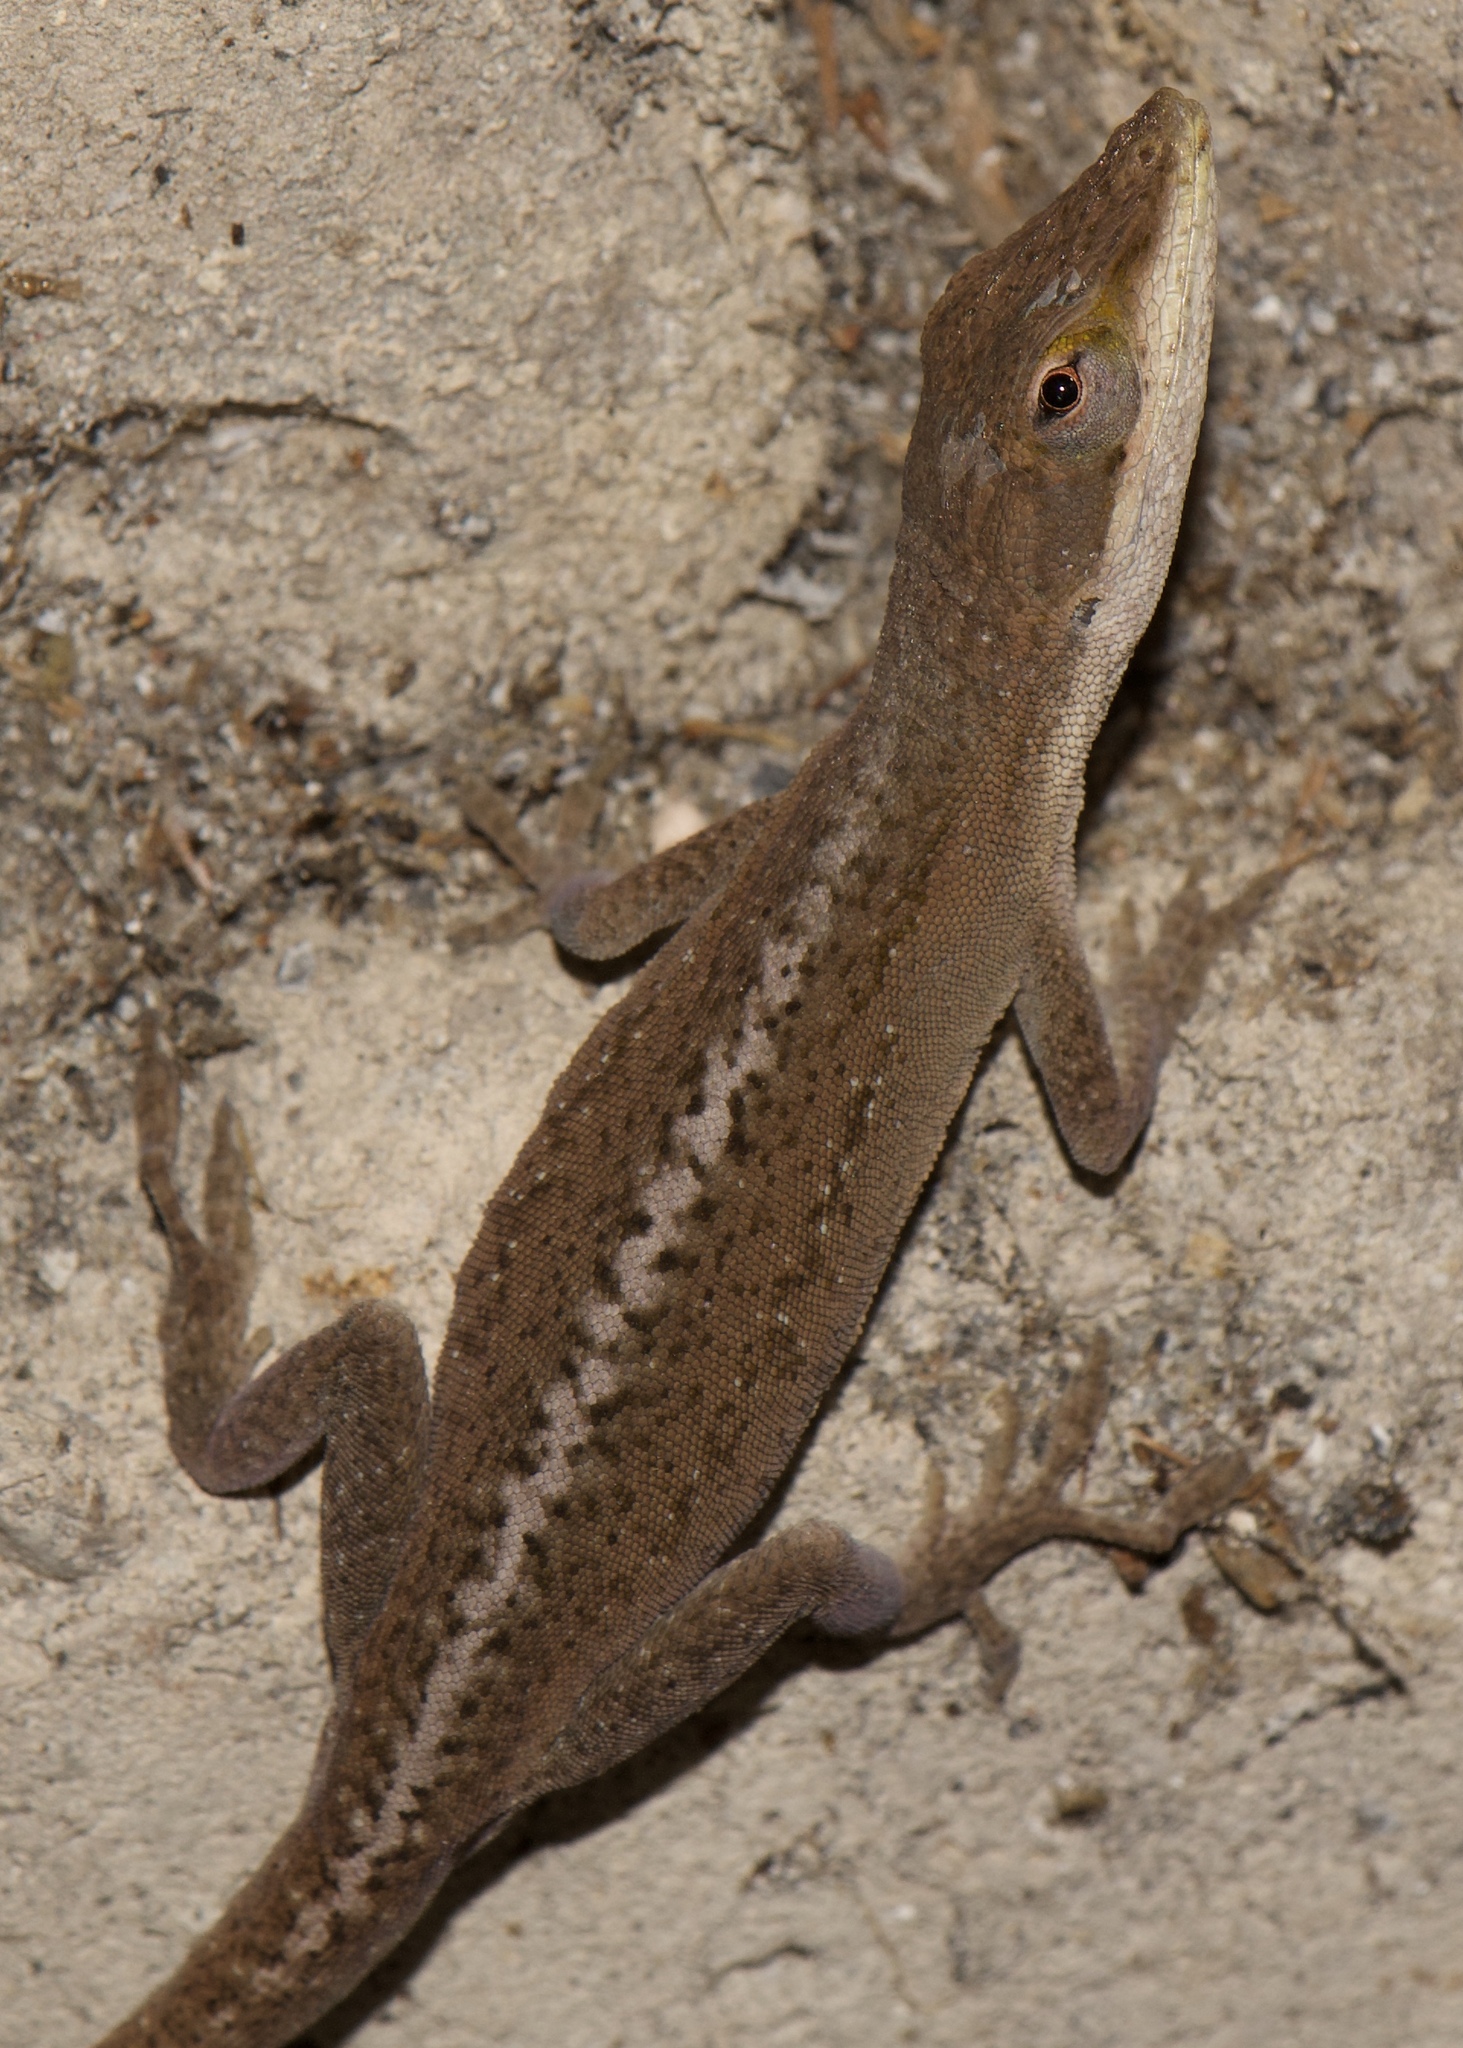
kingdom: Animalia
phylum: Chordata
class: Squamata
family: Dactyloidae
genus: Anolis
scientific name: Anolis carolinensis
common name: Green anole
